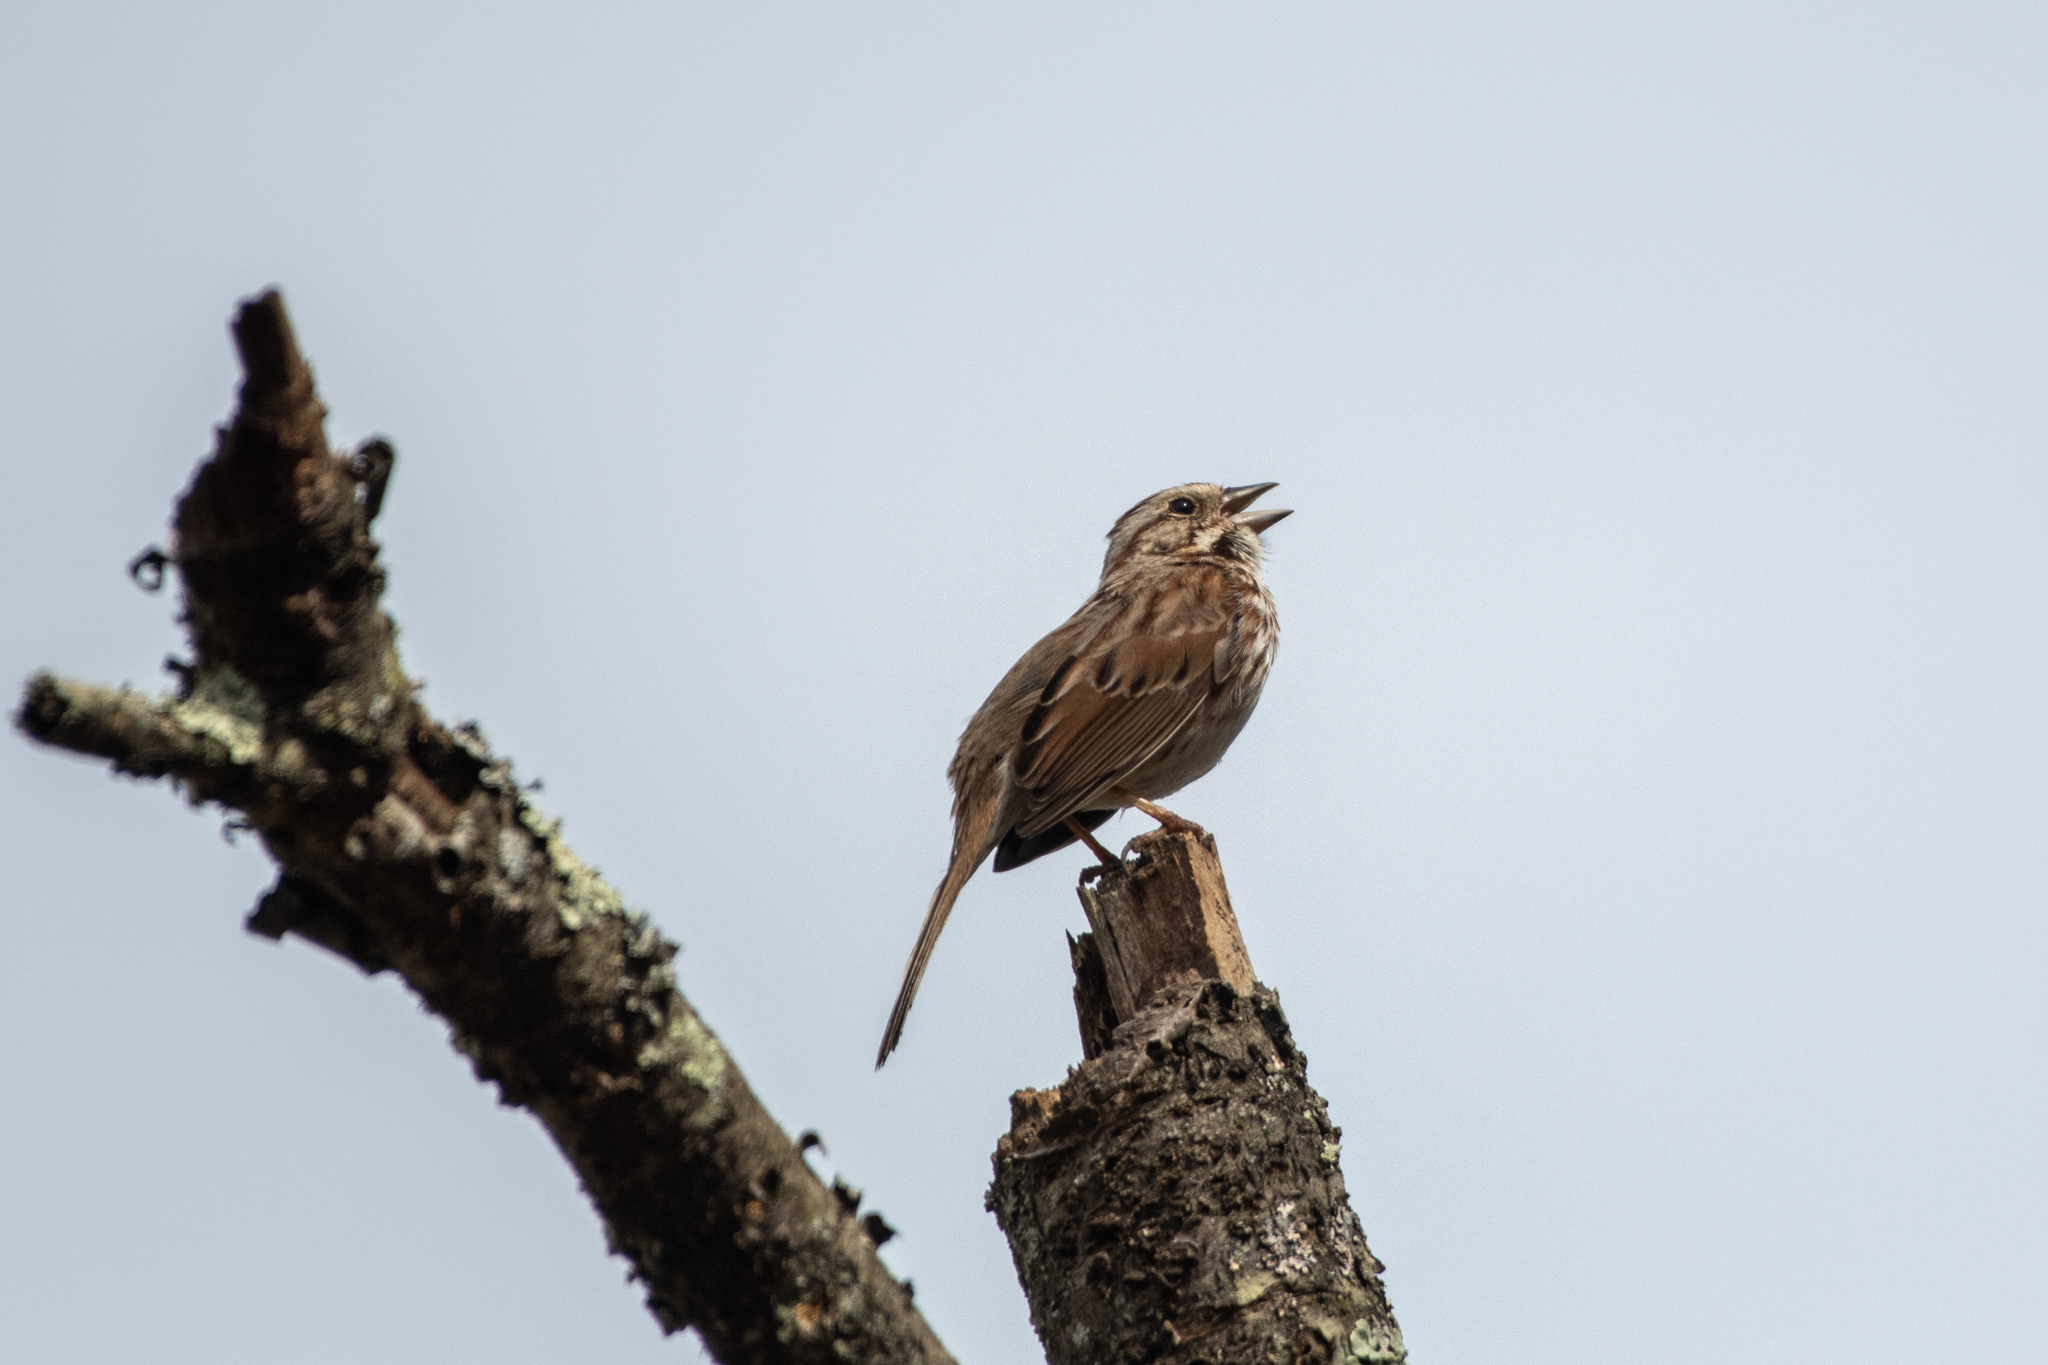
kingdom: Animalia
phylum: Chordata
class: Aves
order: Passeriformes
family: Passerellidae
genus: Melospiza
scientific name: Melospiza melodia
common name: Song sparrow
